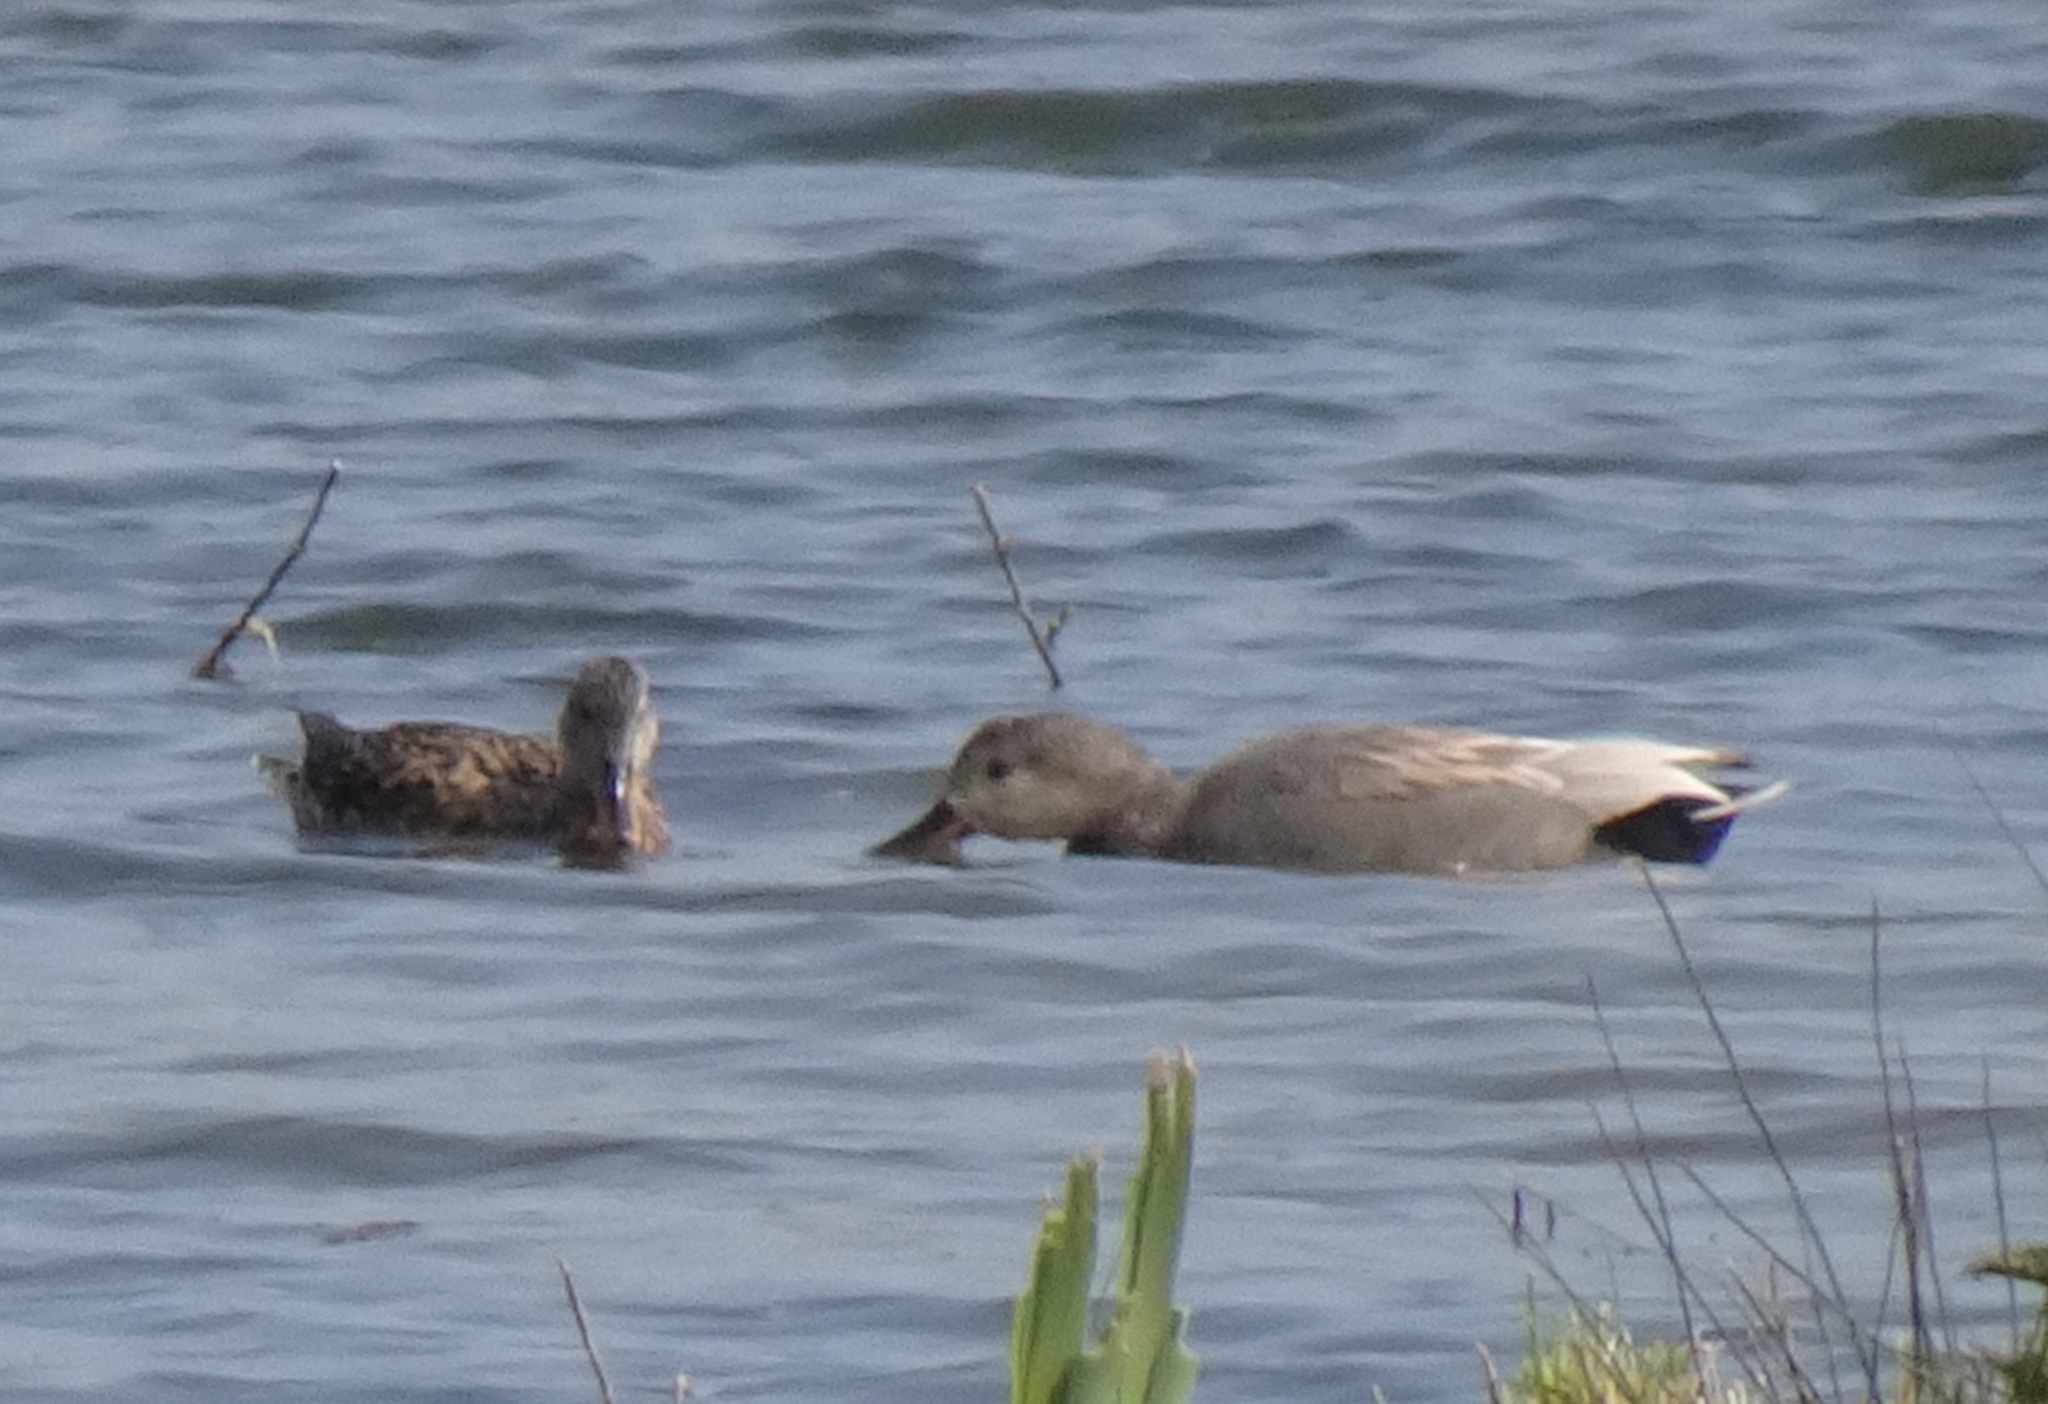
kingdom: Animalia
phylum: Chordata
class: Aves
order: Anseriformes
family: Anatidae
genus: Mareca
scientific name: Mareca strepera
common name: Gadwall
